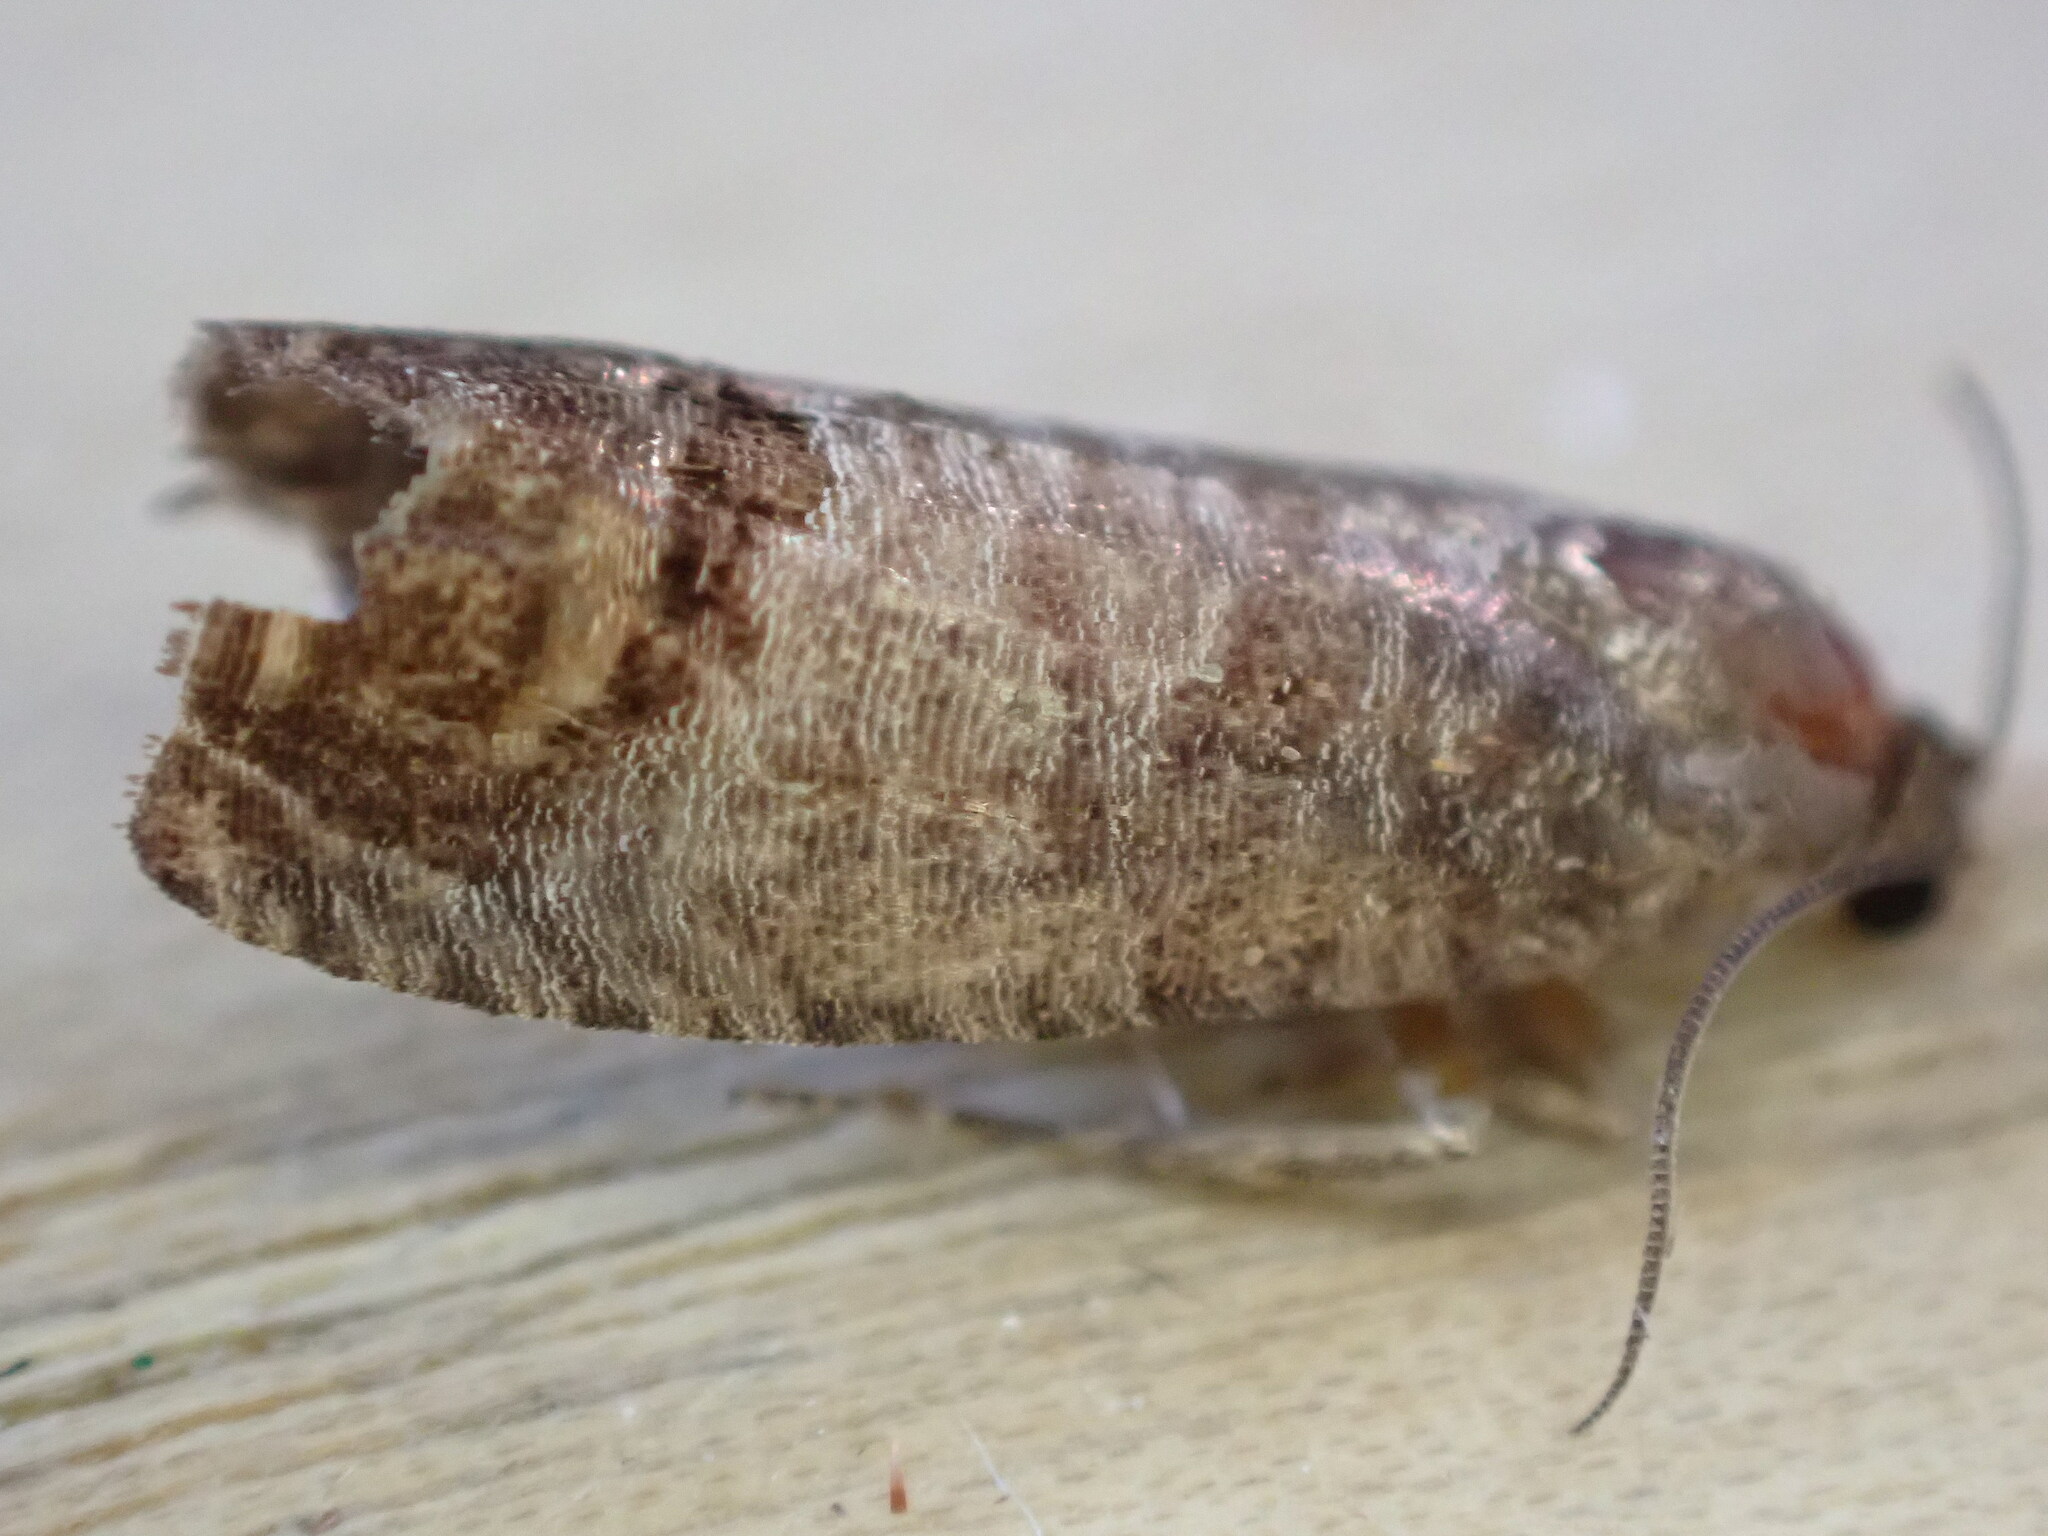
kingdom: Animalia
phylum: Arthropoda
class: Insecta
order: Lepidoptera
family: Tortricidae
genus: Cydia
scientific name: Cydia pomonella
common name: Codling moth
